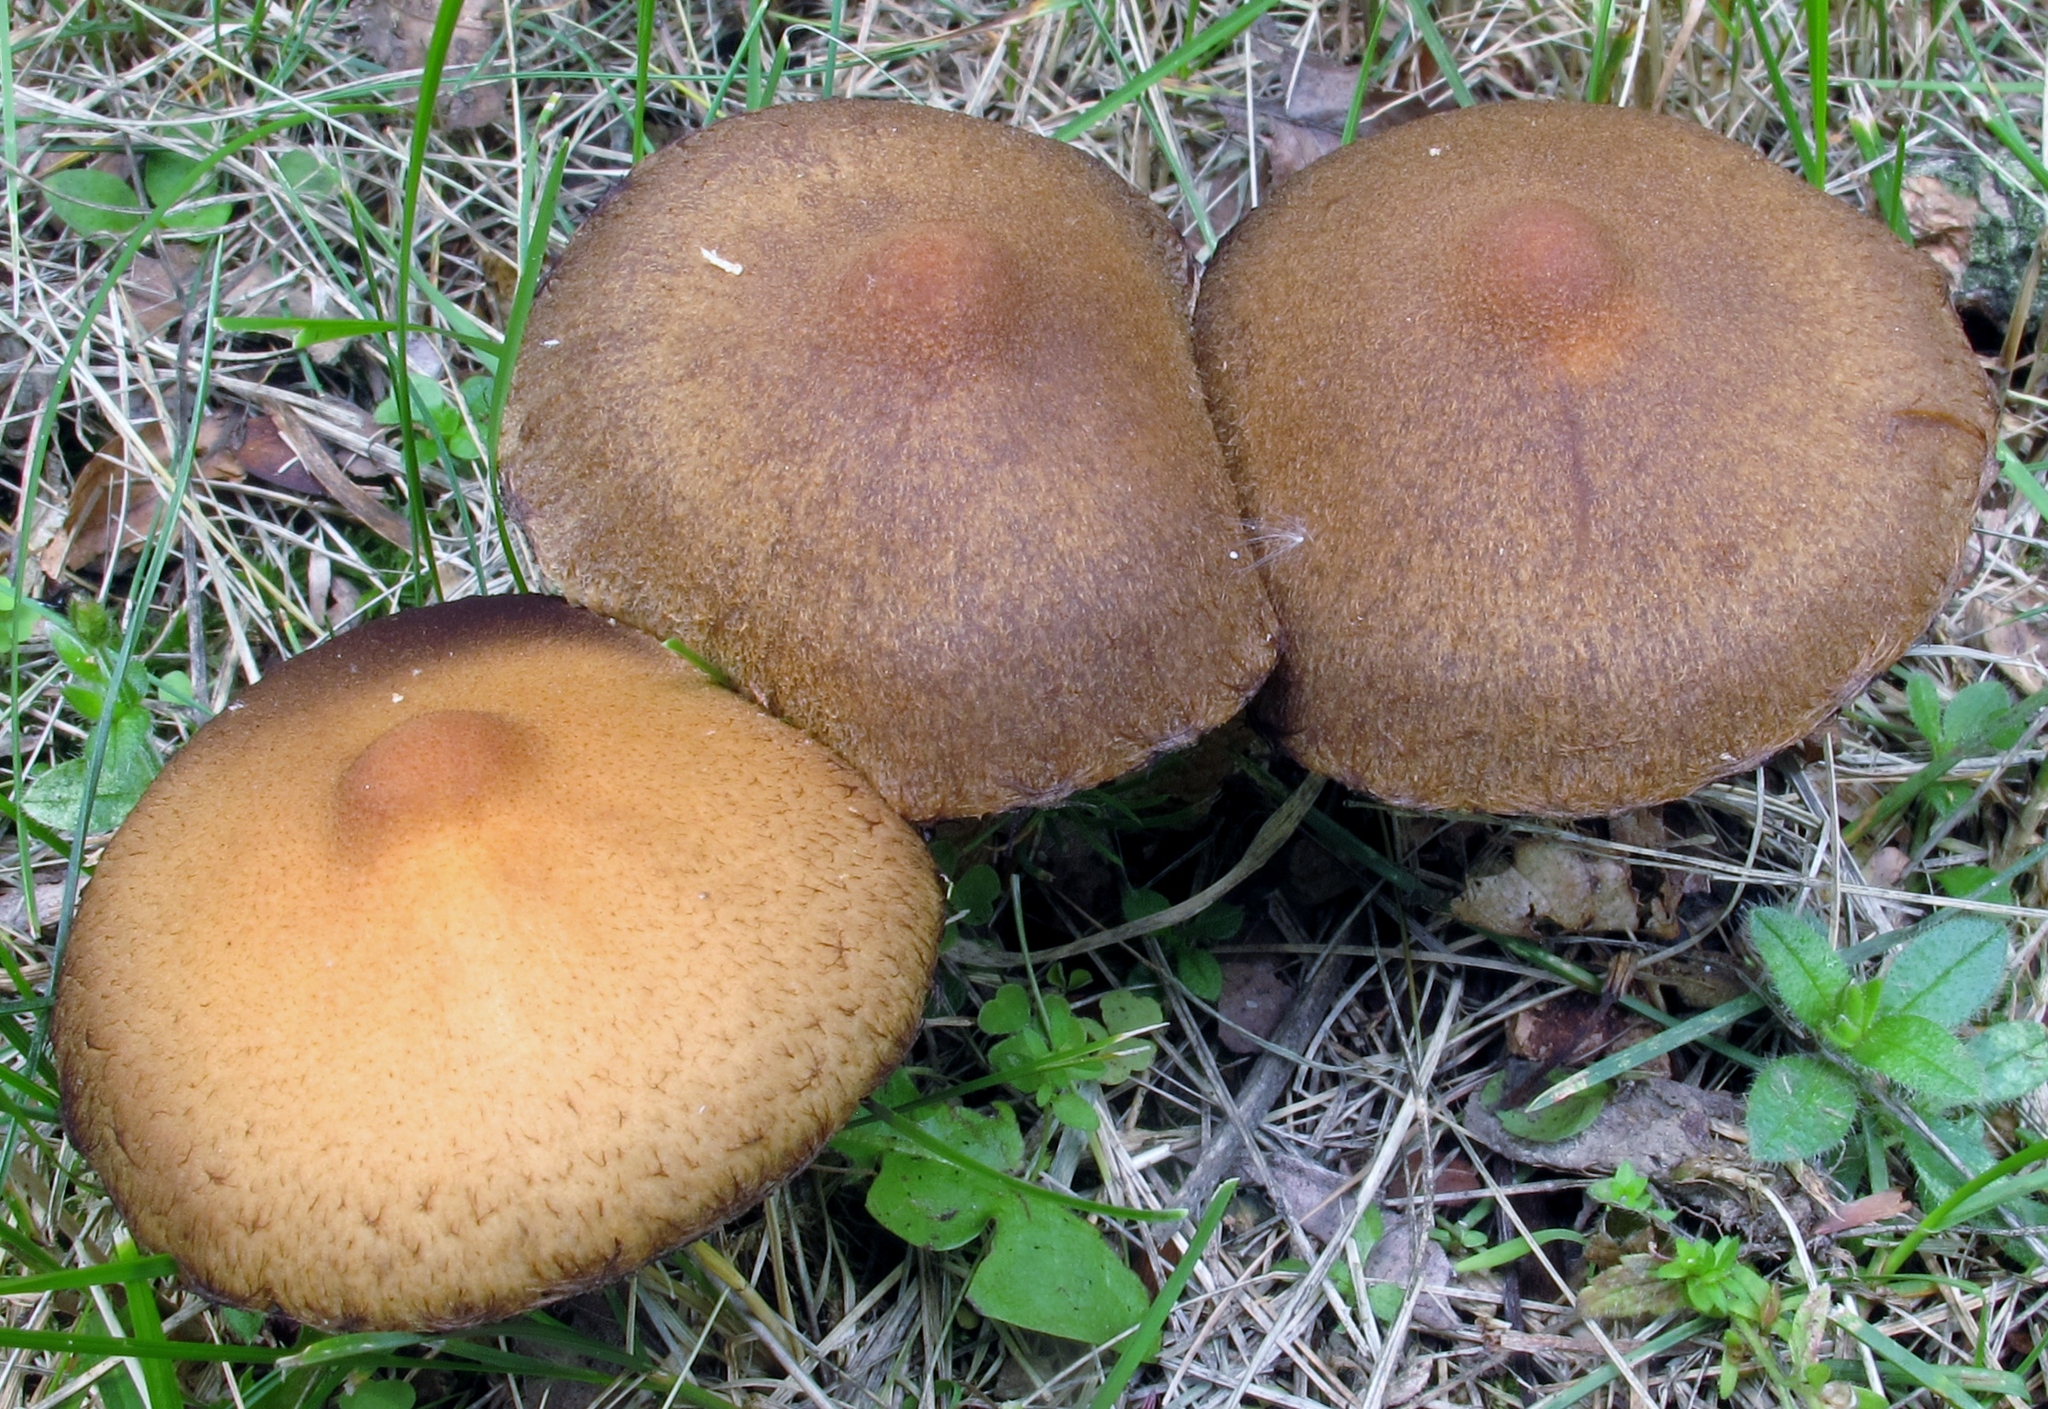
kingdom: Fungi
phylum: Basidiomycota
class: Agaricomycetes
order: Agaricales
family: Psathyrellaceae
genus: Lacrymaria
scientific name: Lacrymaria lacrymabunda
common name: Weeping widow
